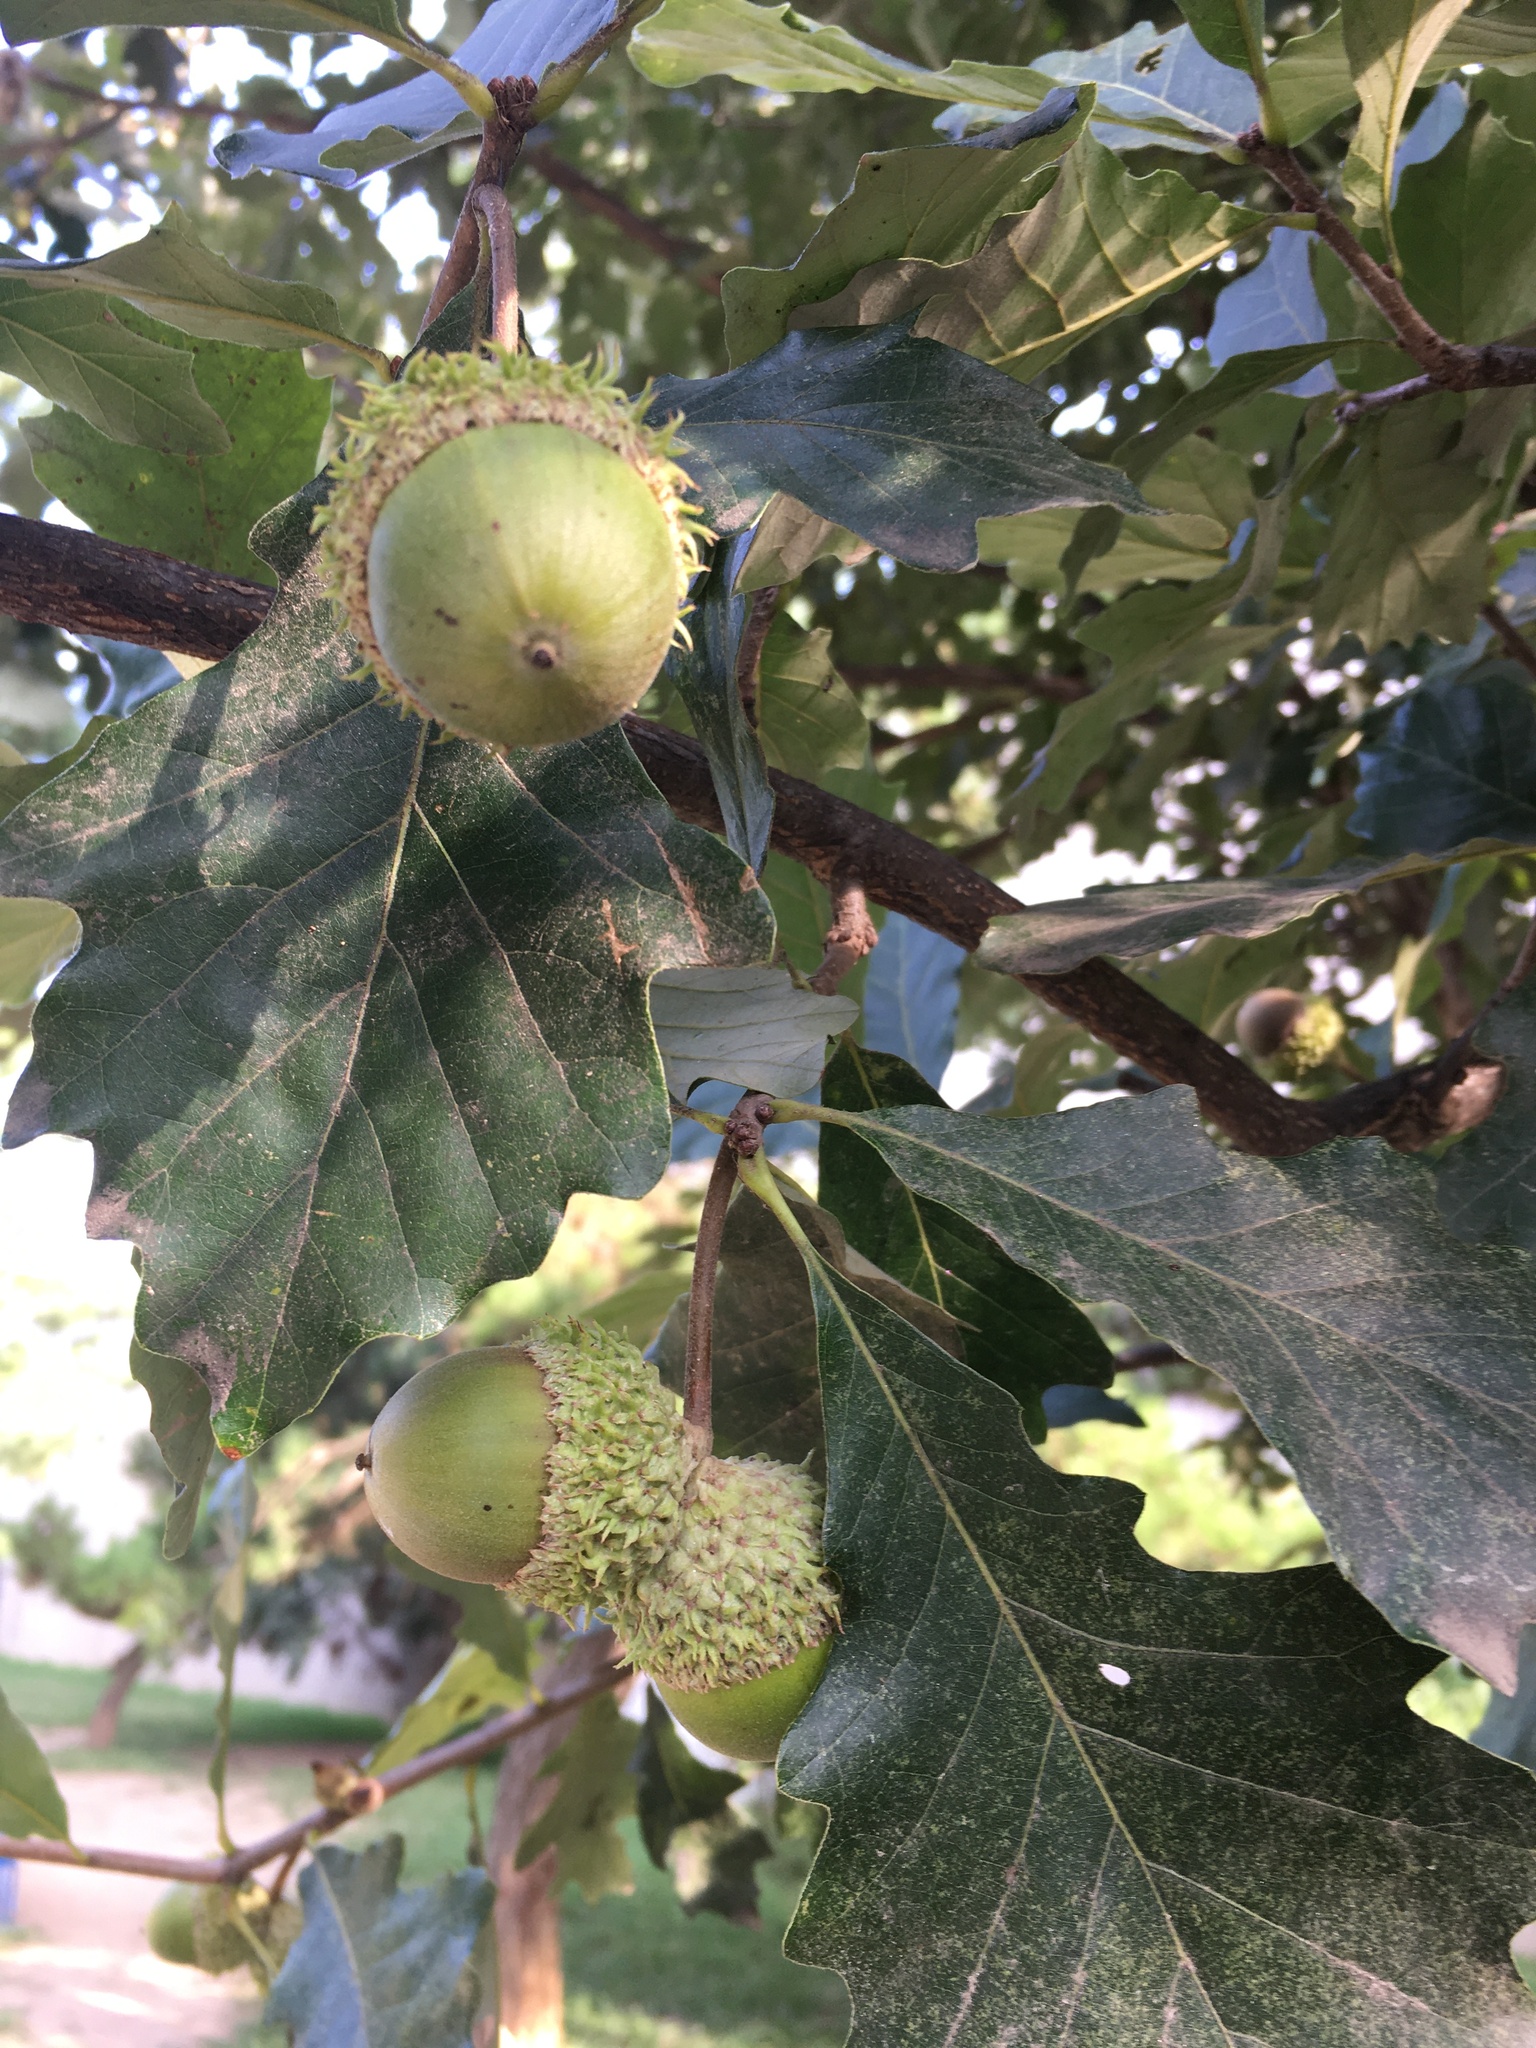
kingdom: Plantae
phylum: Tracheophyta
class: Magnoliopsida
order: Fagales
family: Fagaceae
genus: Quercus
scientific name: Quercus bicolor
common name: Swamp white oak
